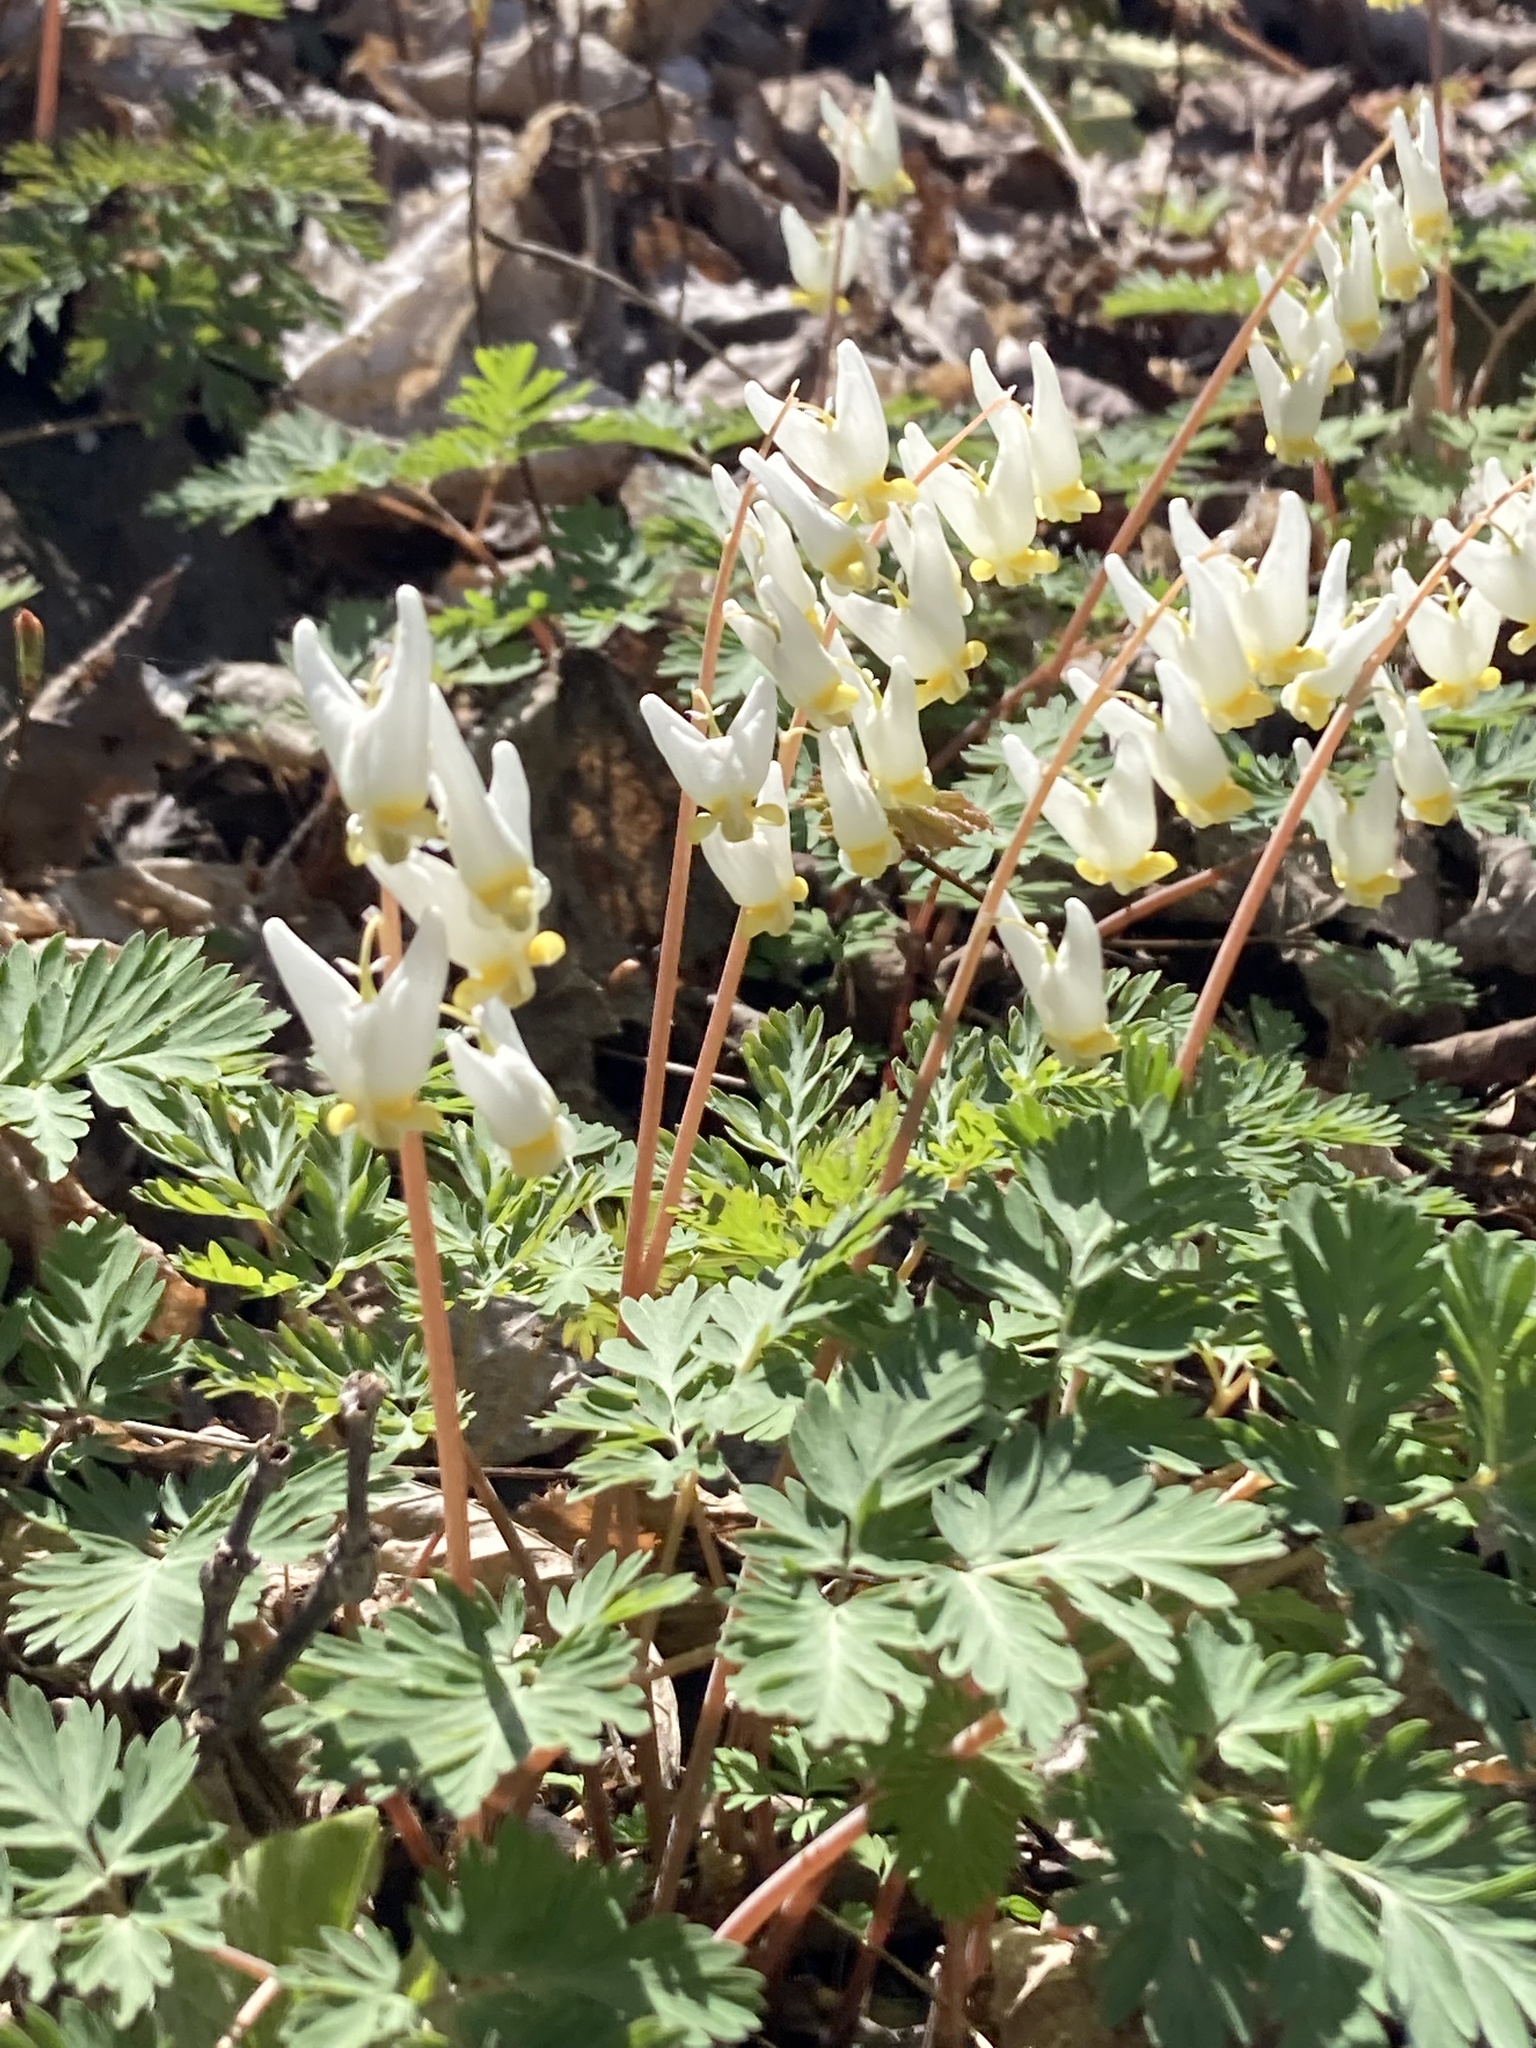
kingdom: Plantae
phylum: Tracheophyta
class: Magnoliopsida
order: Ranunculales
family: Papaveraceae
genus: Dicentra
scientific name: Dicentra cucullaria
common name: Dutchman's breeches
